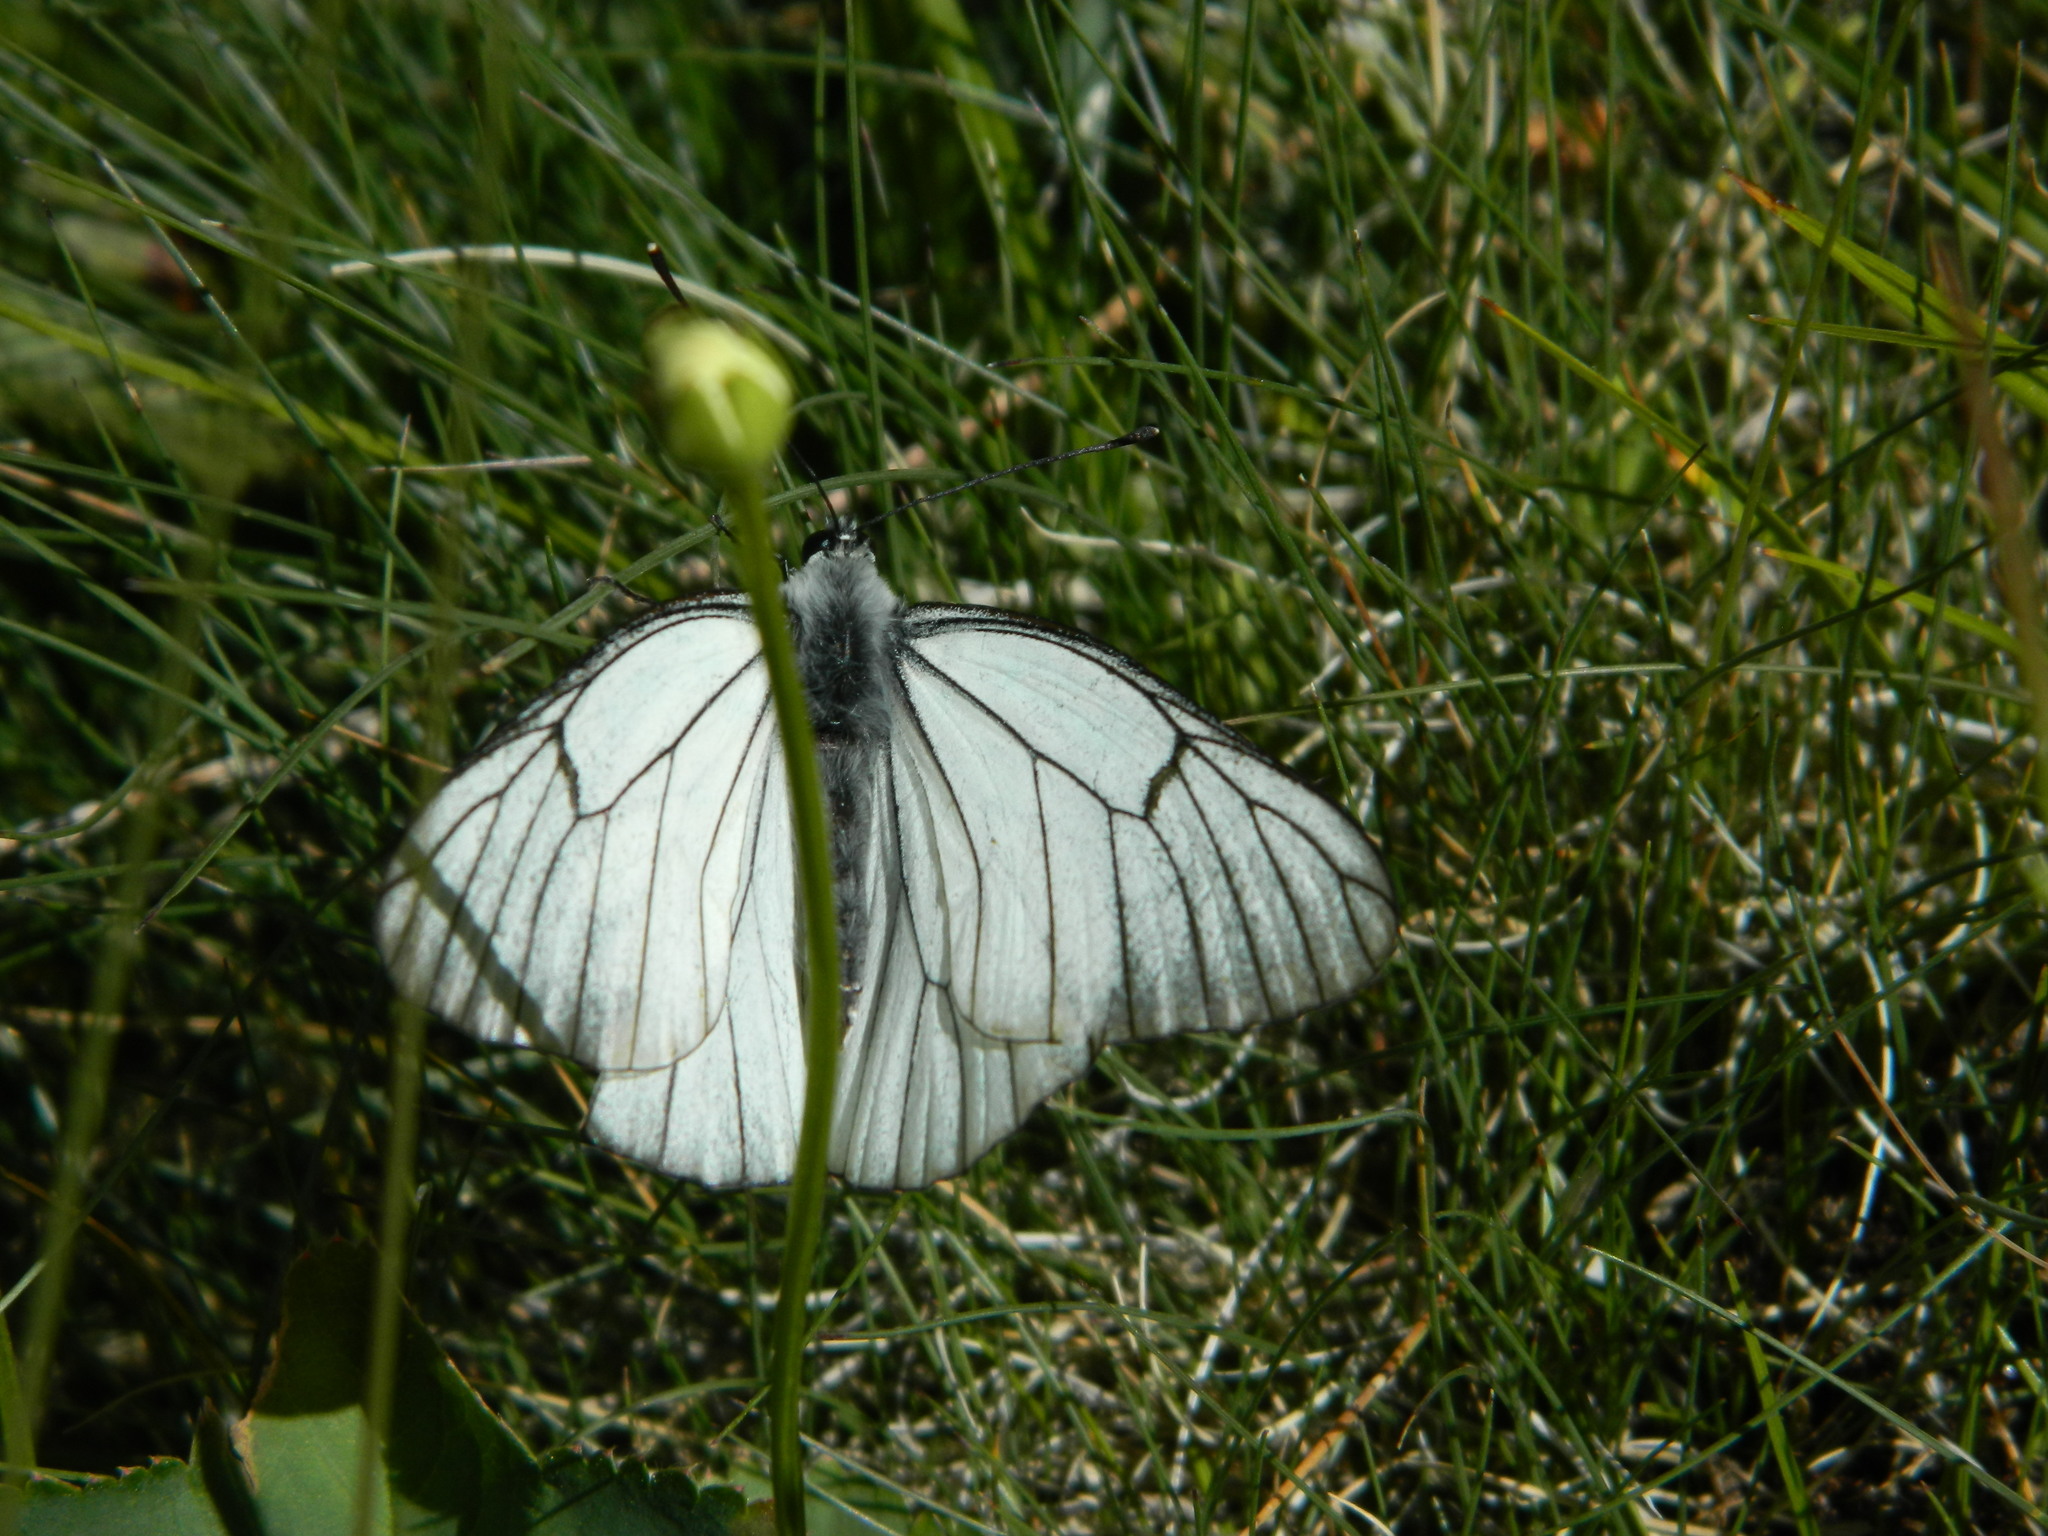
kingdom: Animalia
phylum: Arthropoda
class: Insecta
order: Lepidoptera
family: Pieridae
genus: Aporia
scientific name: Aporia crataegi
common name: Black-veined white
